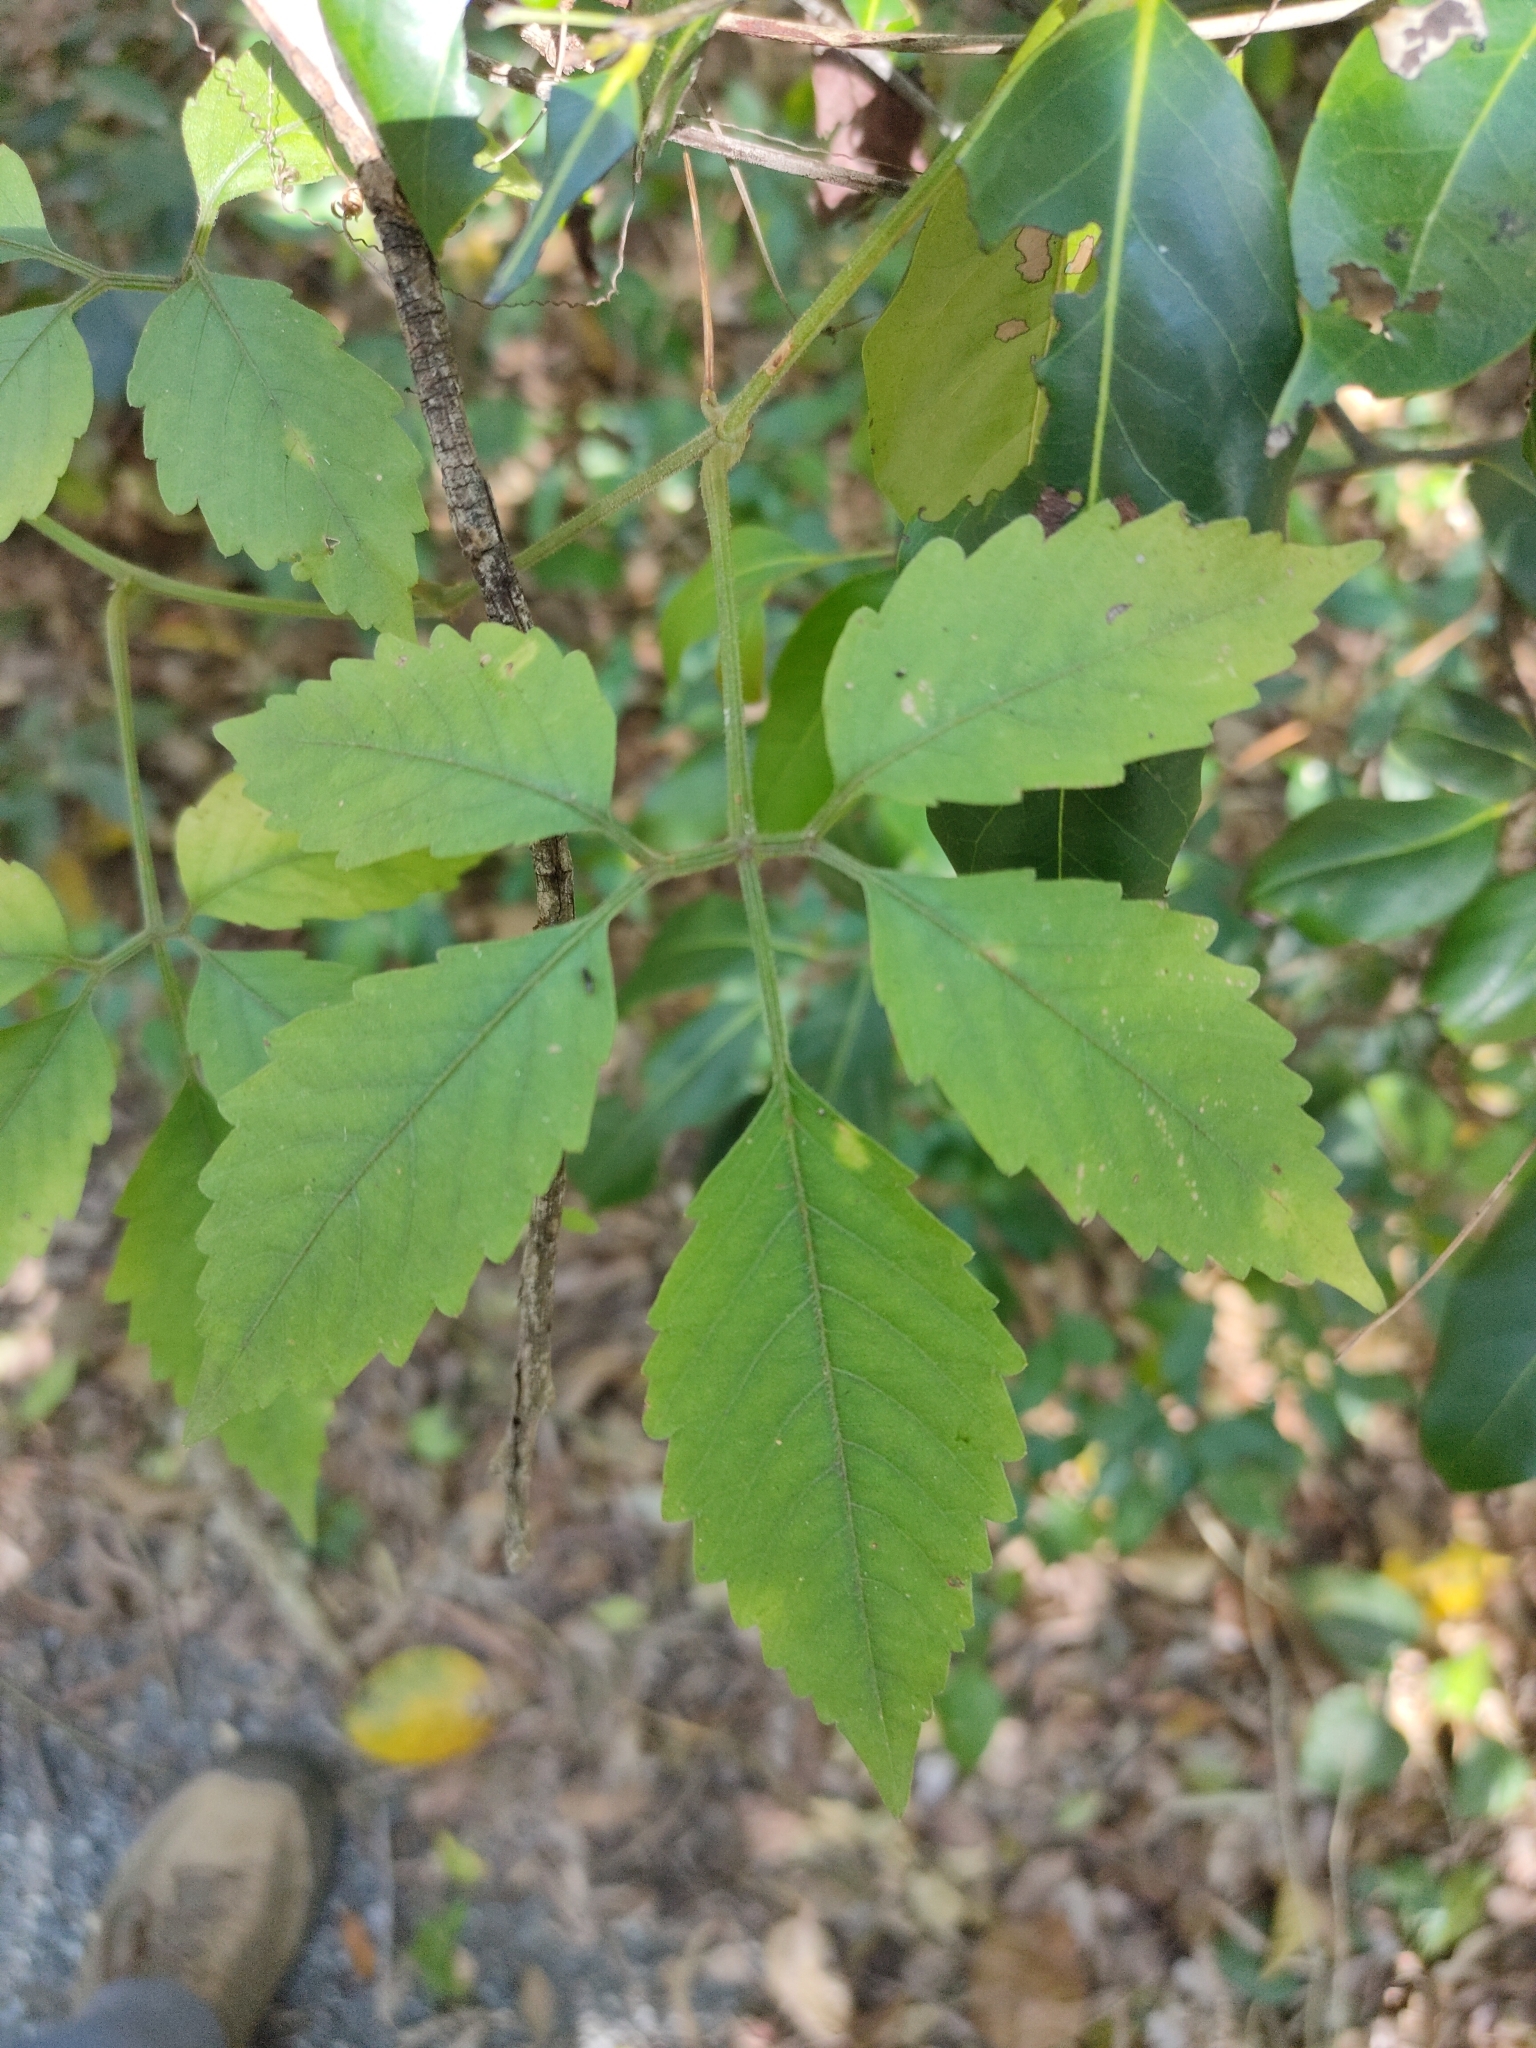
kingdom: Plantae
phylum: Tracheophyta
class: Magnoliopsida
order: Vitales
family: Vitaceae
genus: Causonis
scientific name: Causonis clematidea
